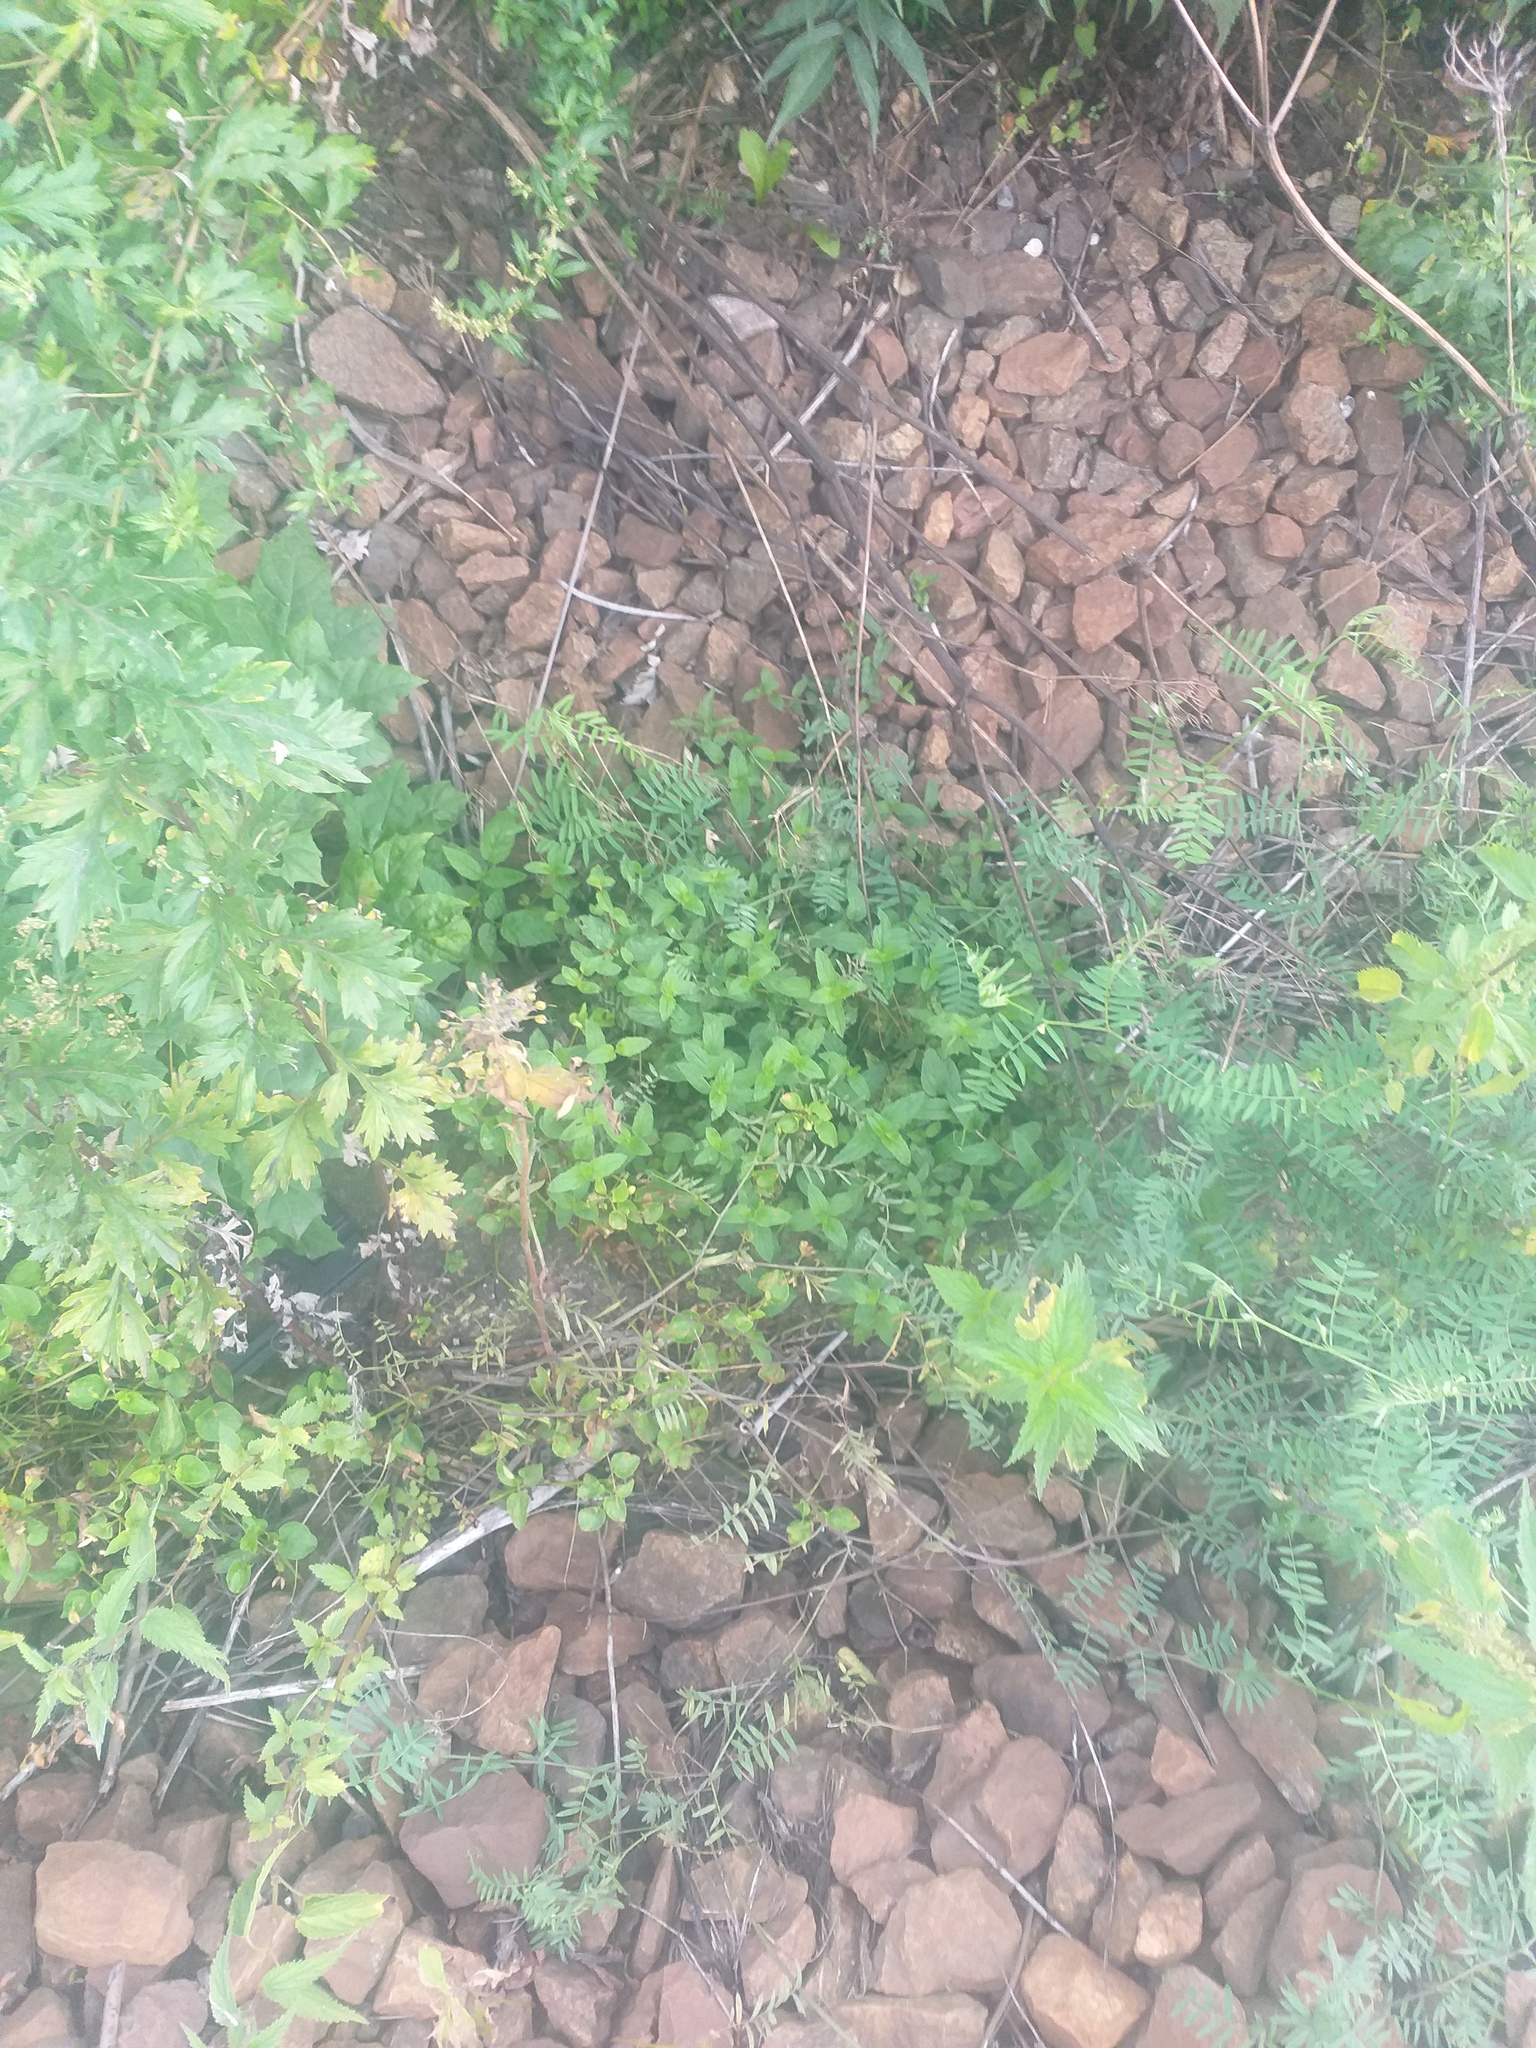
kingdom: Plantae
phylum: Tracheophyta
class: Magnoliopsida
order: Lamiales
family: Plantaginaceae
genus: Veronica
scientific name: Veronica chamaedrys
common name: Germander speedwell
